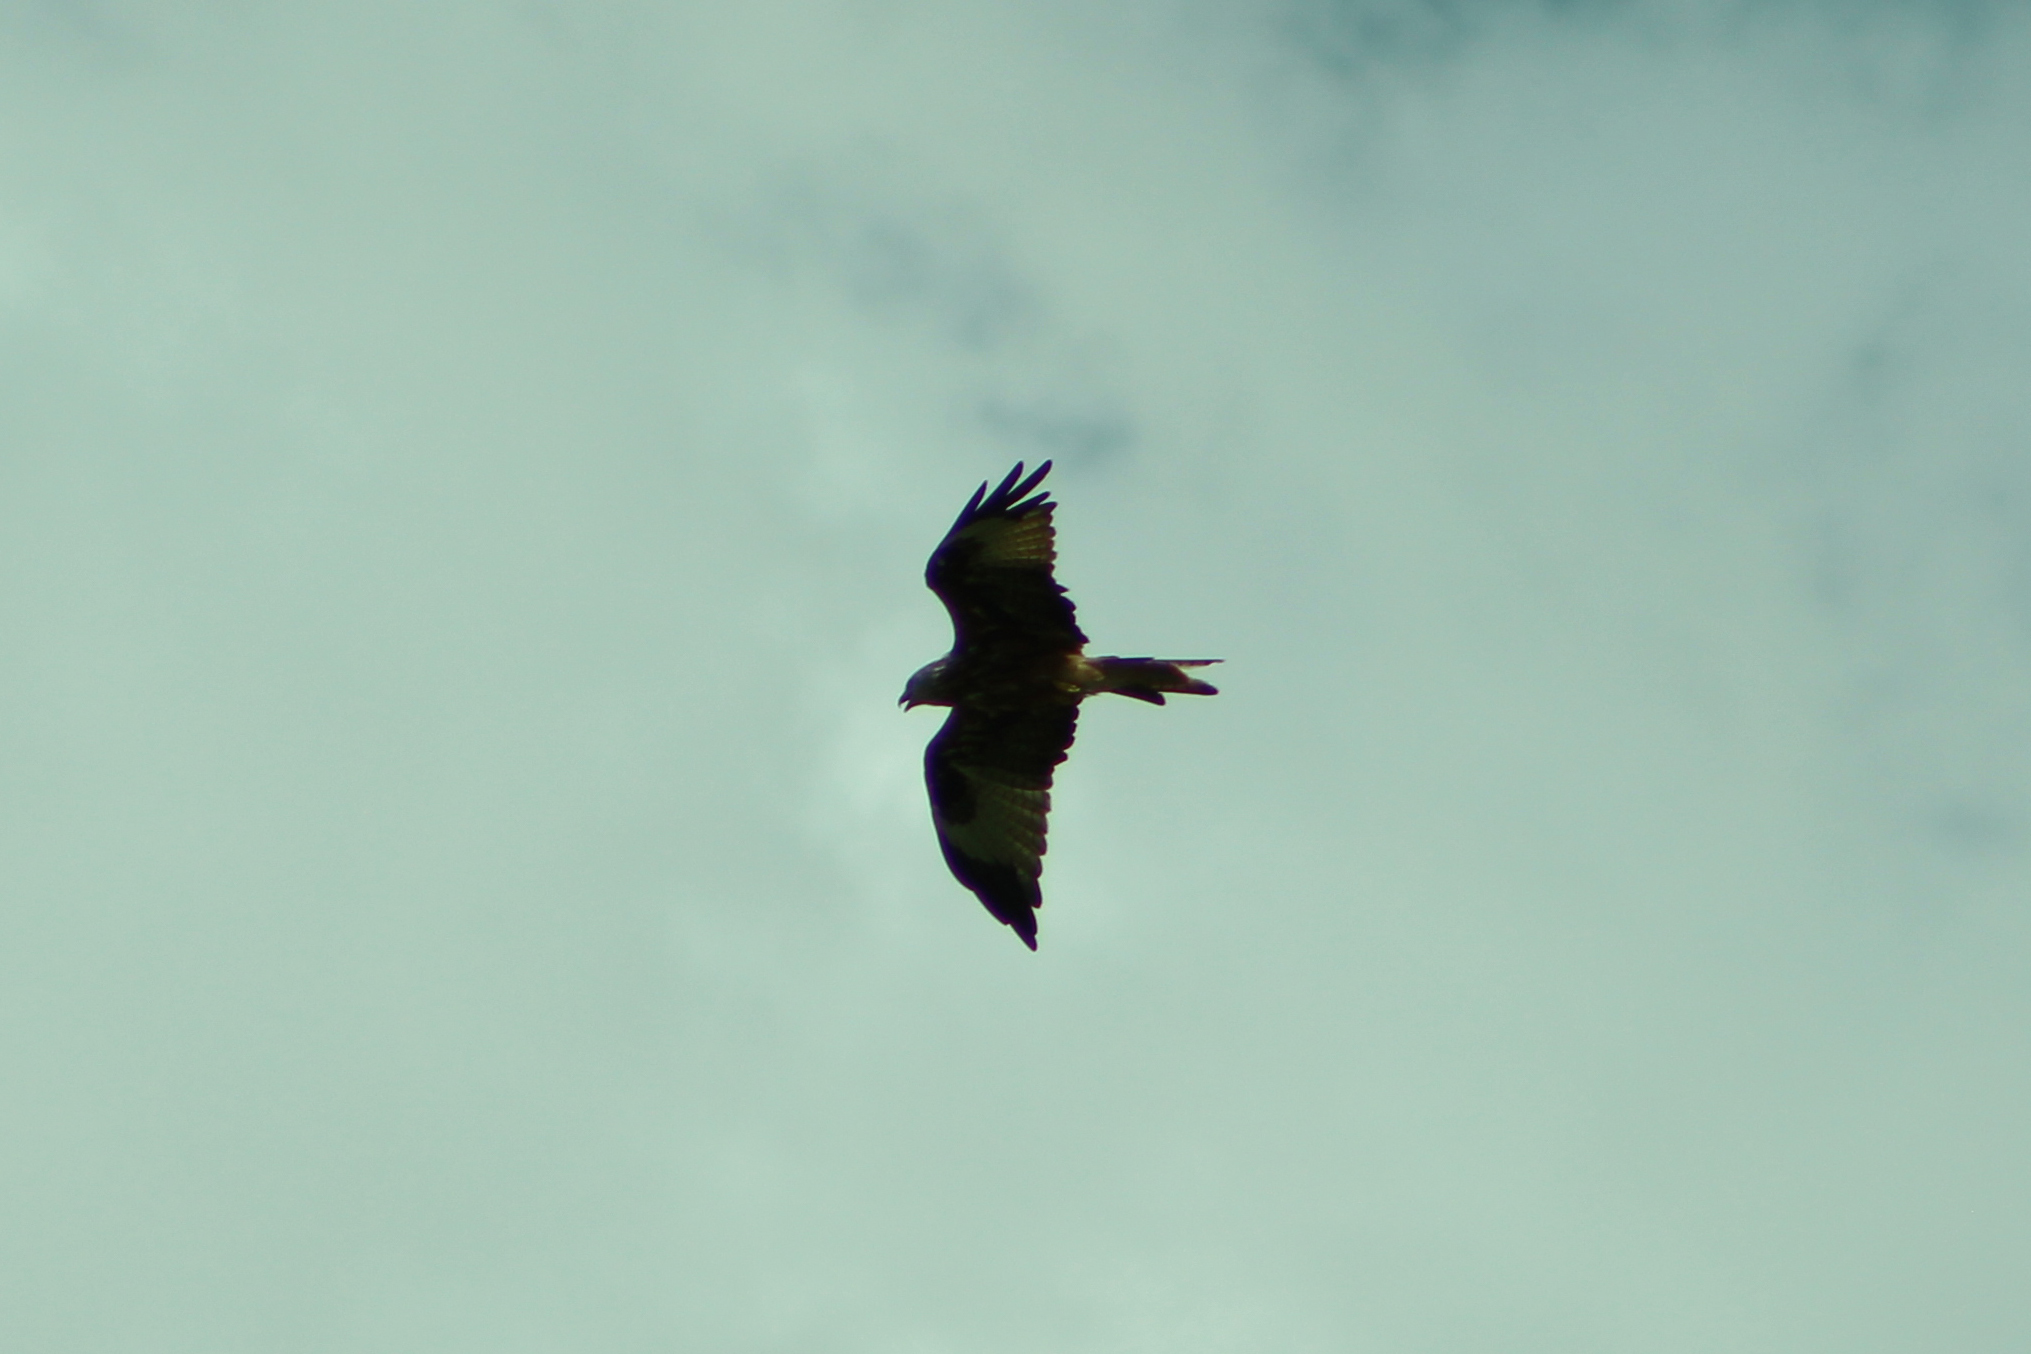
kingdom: Animalia
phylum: Chordata
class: Aves
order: Accipitriformes
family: Accipitridae
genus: Milvus
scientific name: Milvus milvus
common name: Red kite
